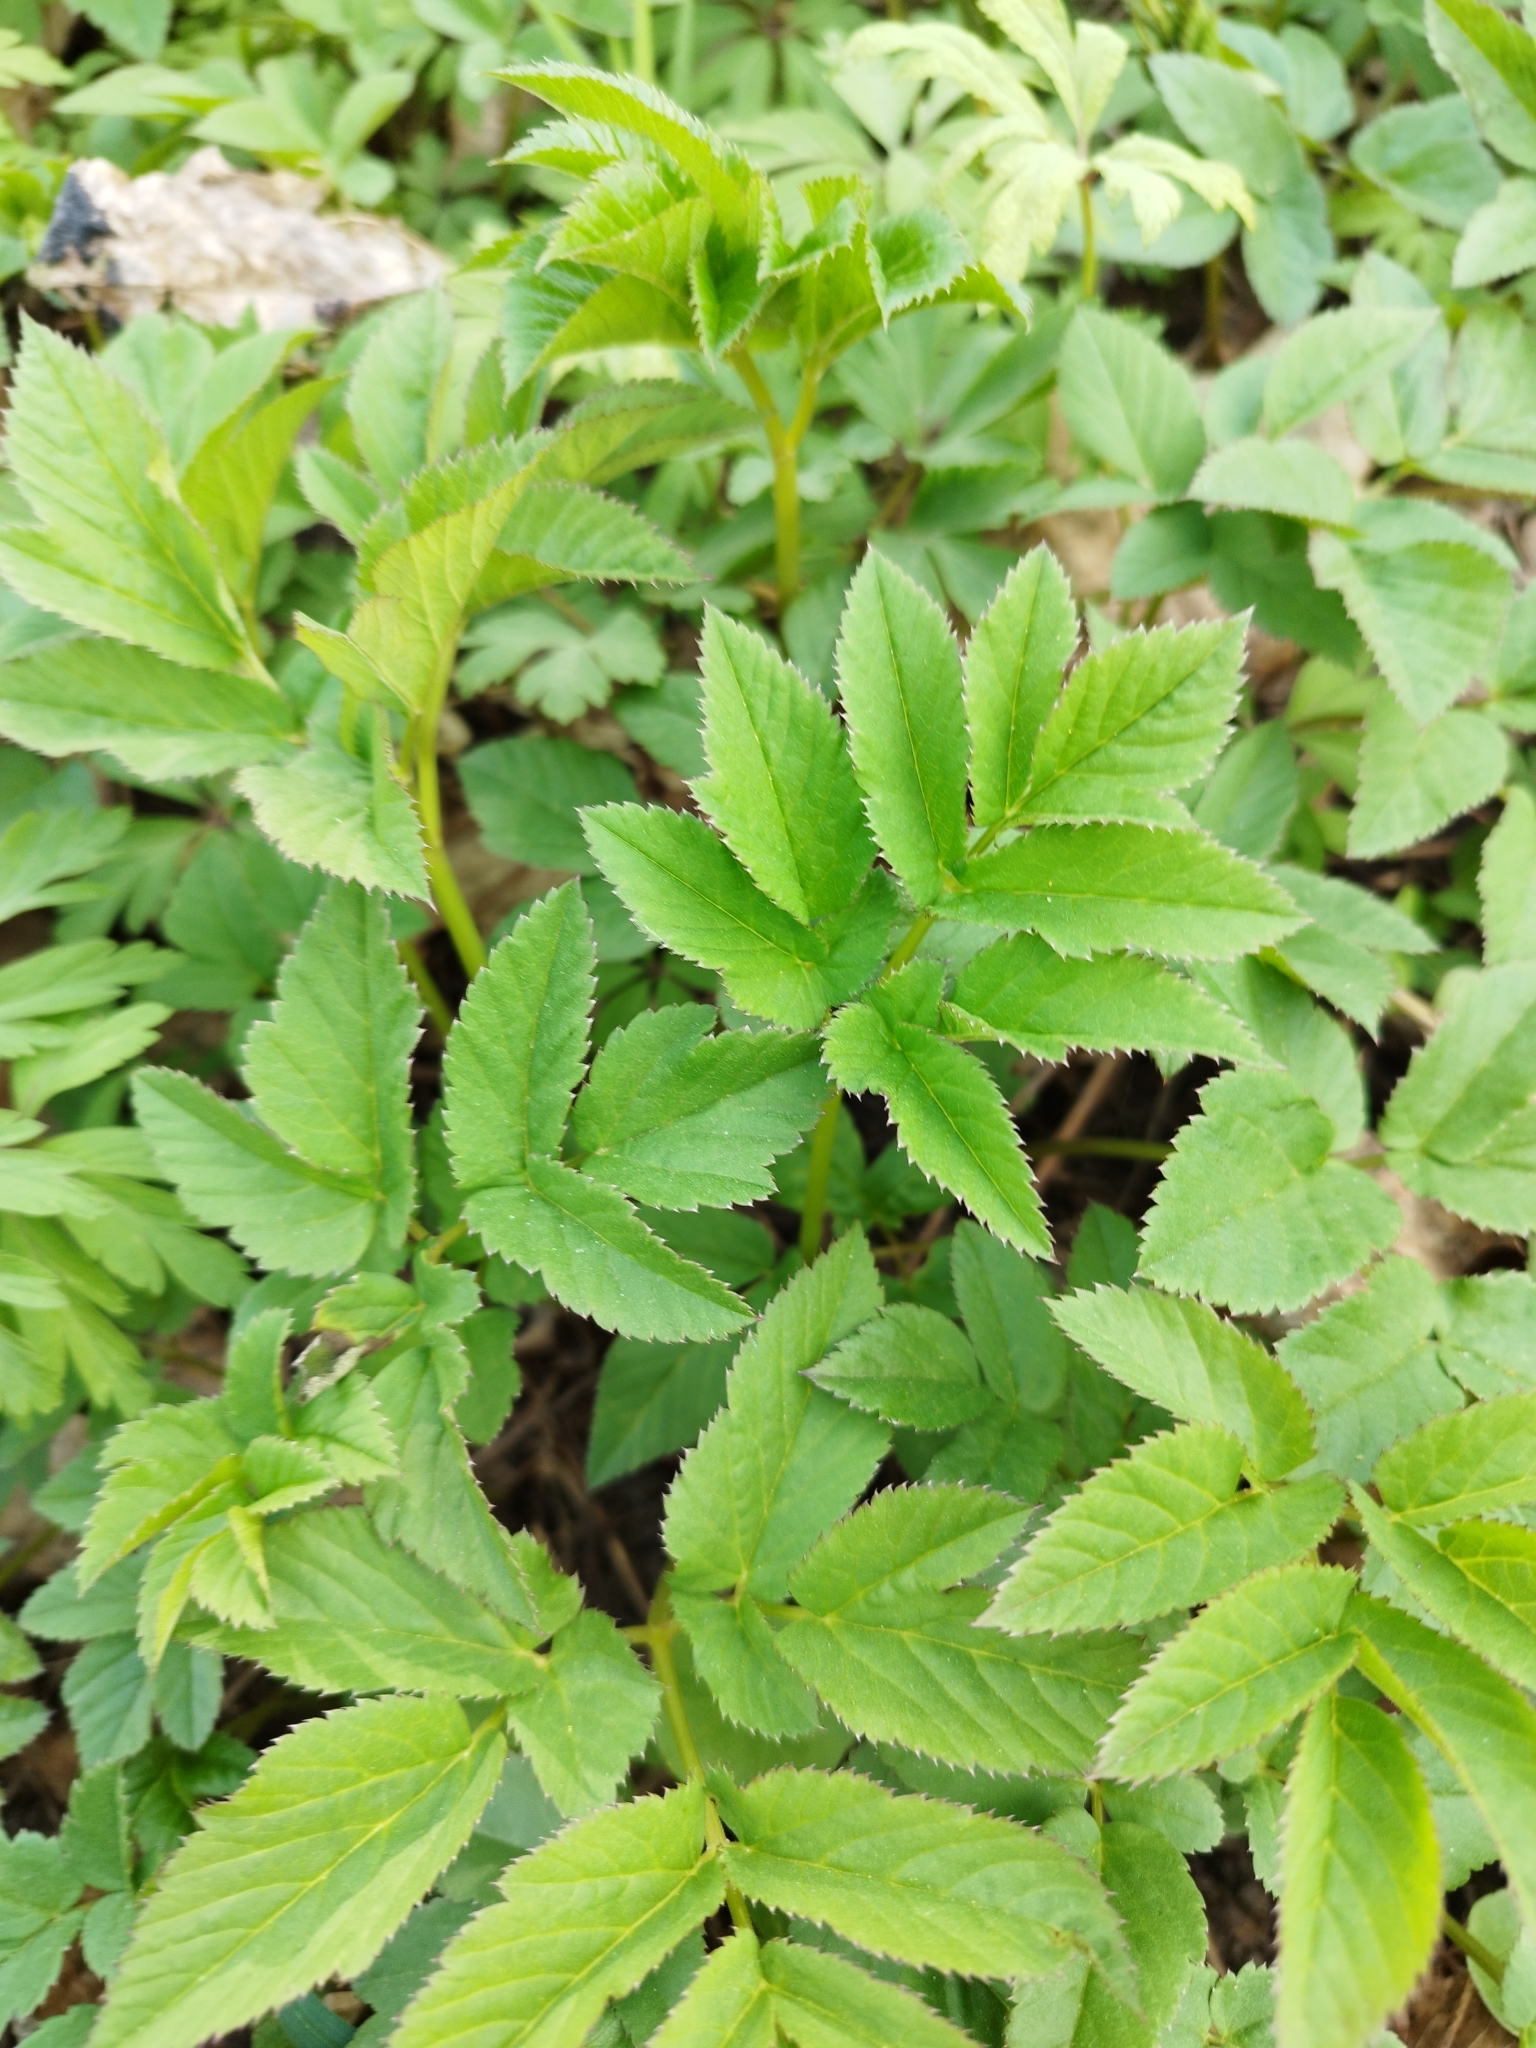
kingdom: Plantae
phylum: Tracheophyta
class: Magnoliopsida
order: Apiales
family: Apiaceae
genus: Aegopodium
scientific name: Aegopodium podagraria
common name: Ground-elder
